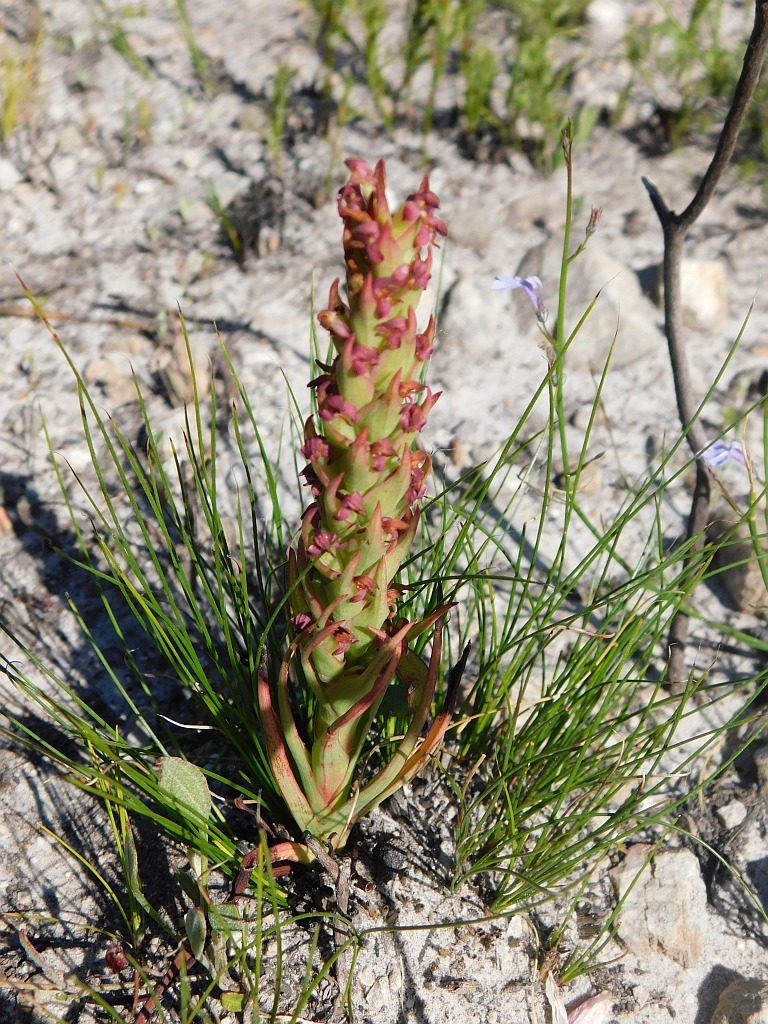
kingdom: Plantae
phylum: Tracheophyta
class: Liliopsida
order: Asparagales
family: Orchidaceae
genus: Disa
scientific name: Disa bracteata
